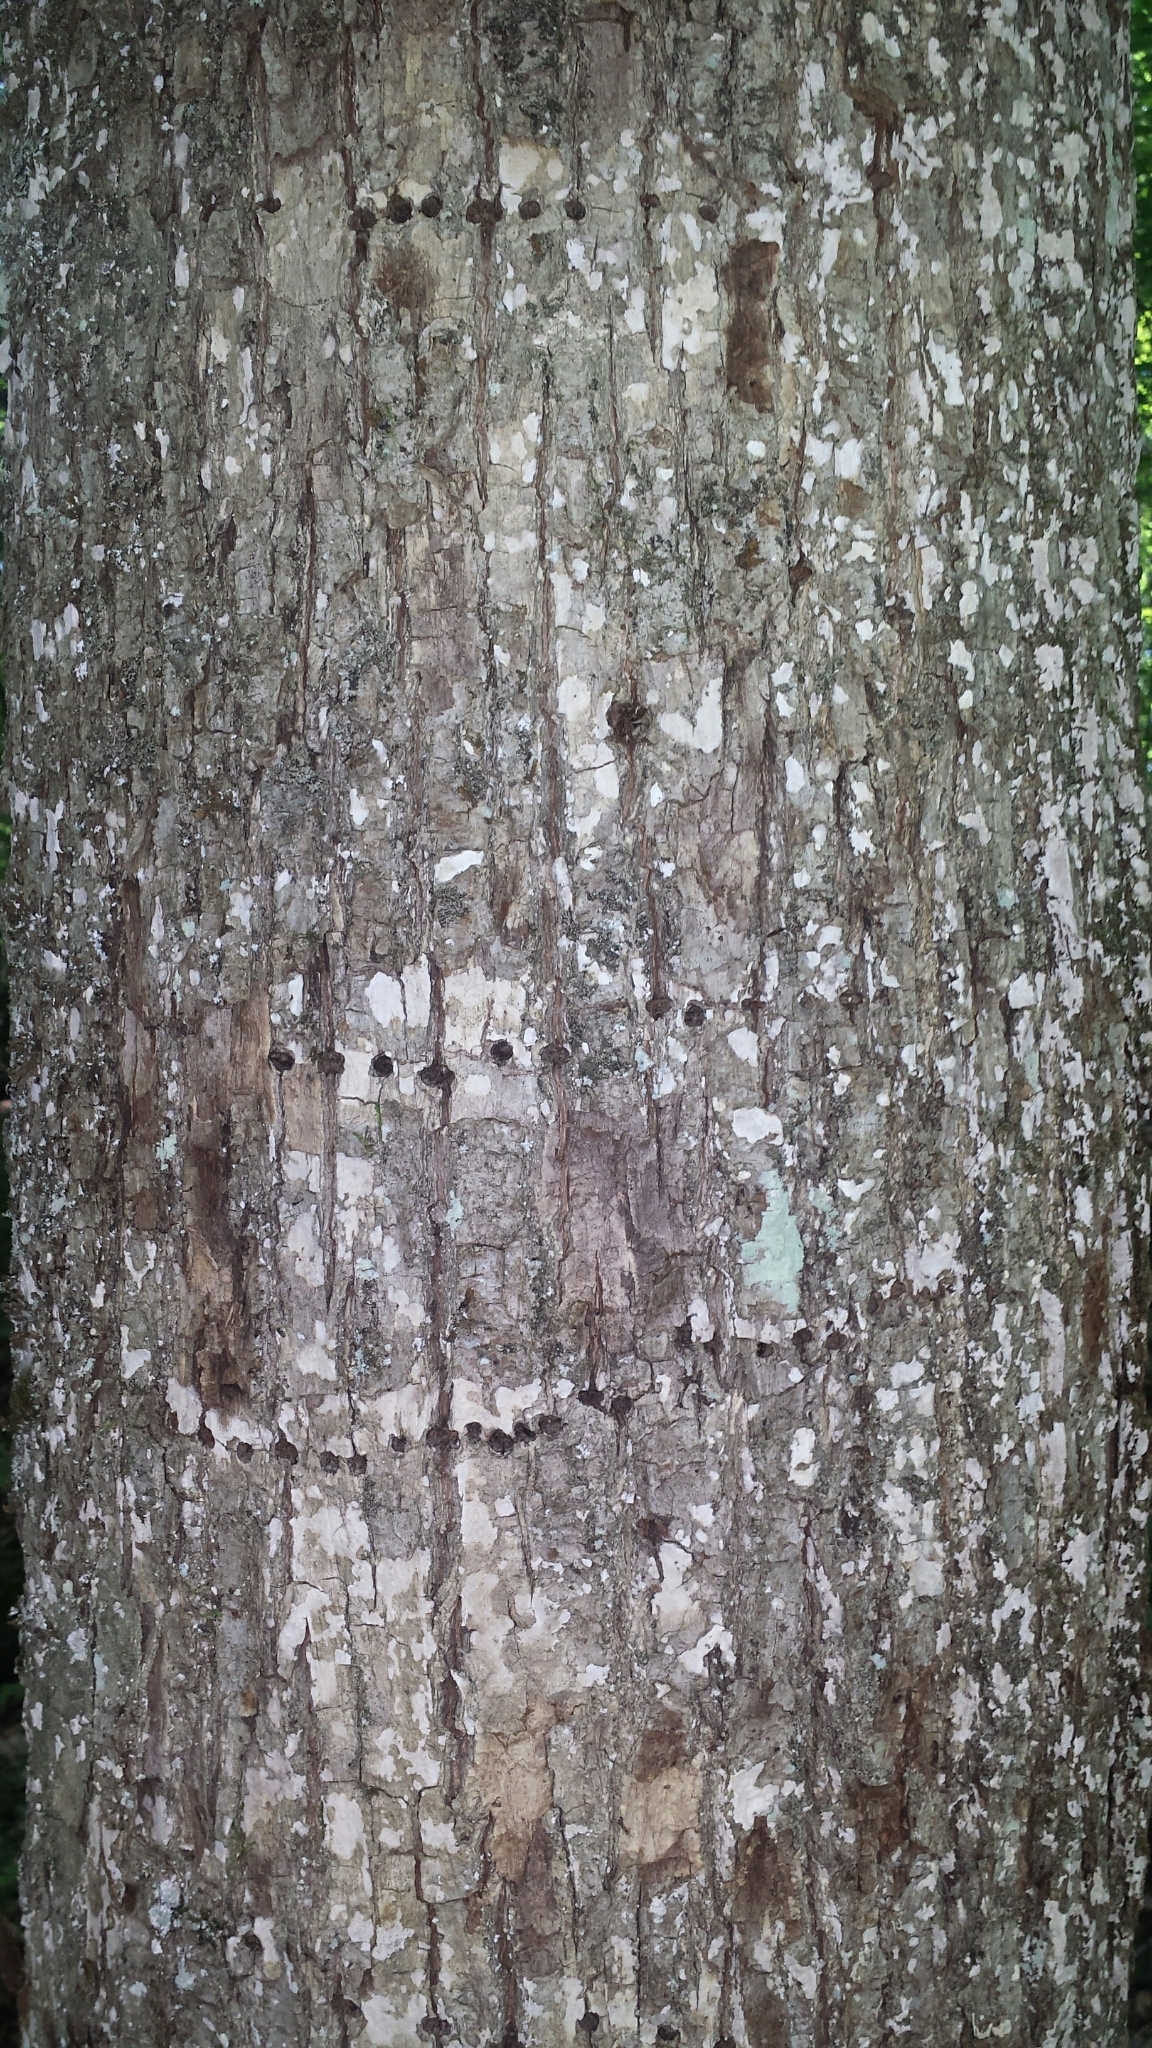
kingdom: Animalia
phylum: Chordata
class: Aves
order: Piciformes
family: Picidae
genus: Sphyrapicus
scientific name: Sphyrapicus varius
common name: Yellow-bellied sapsucker
